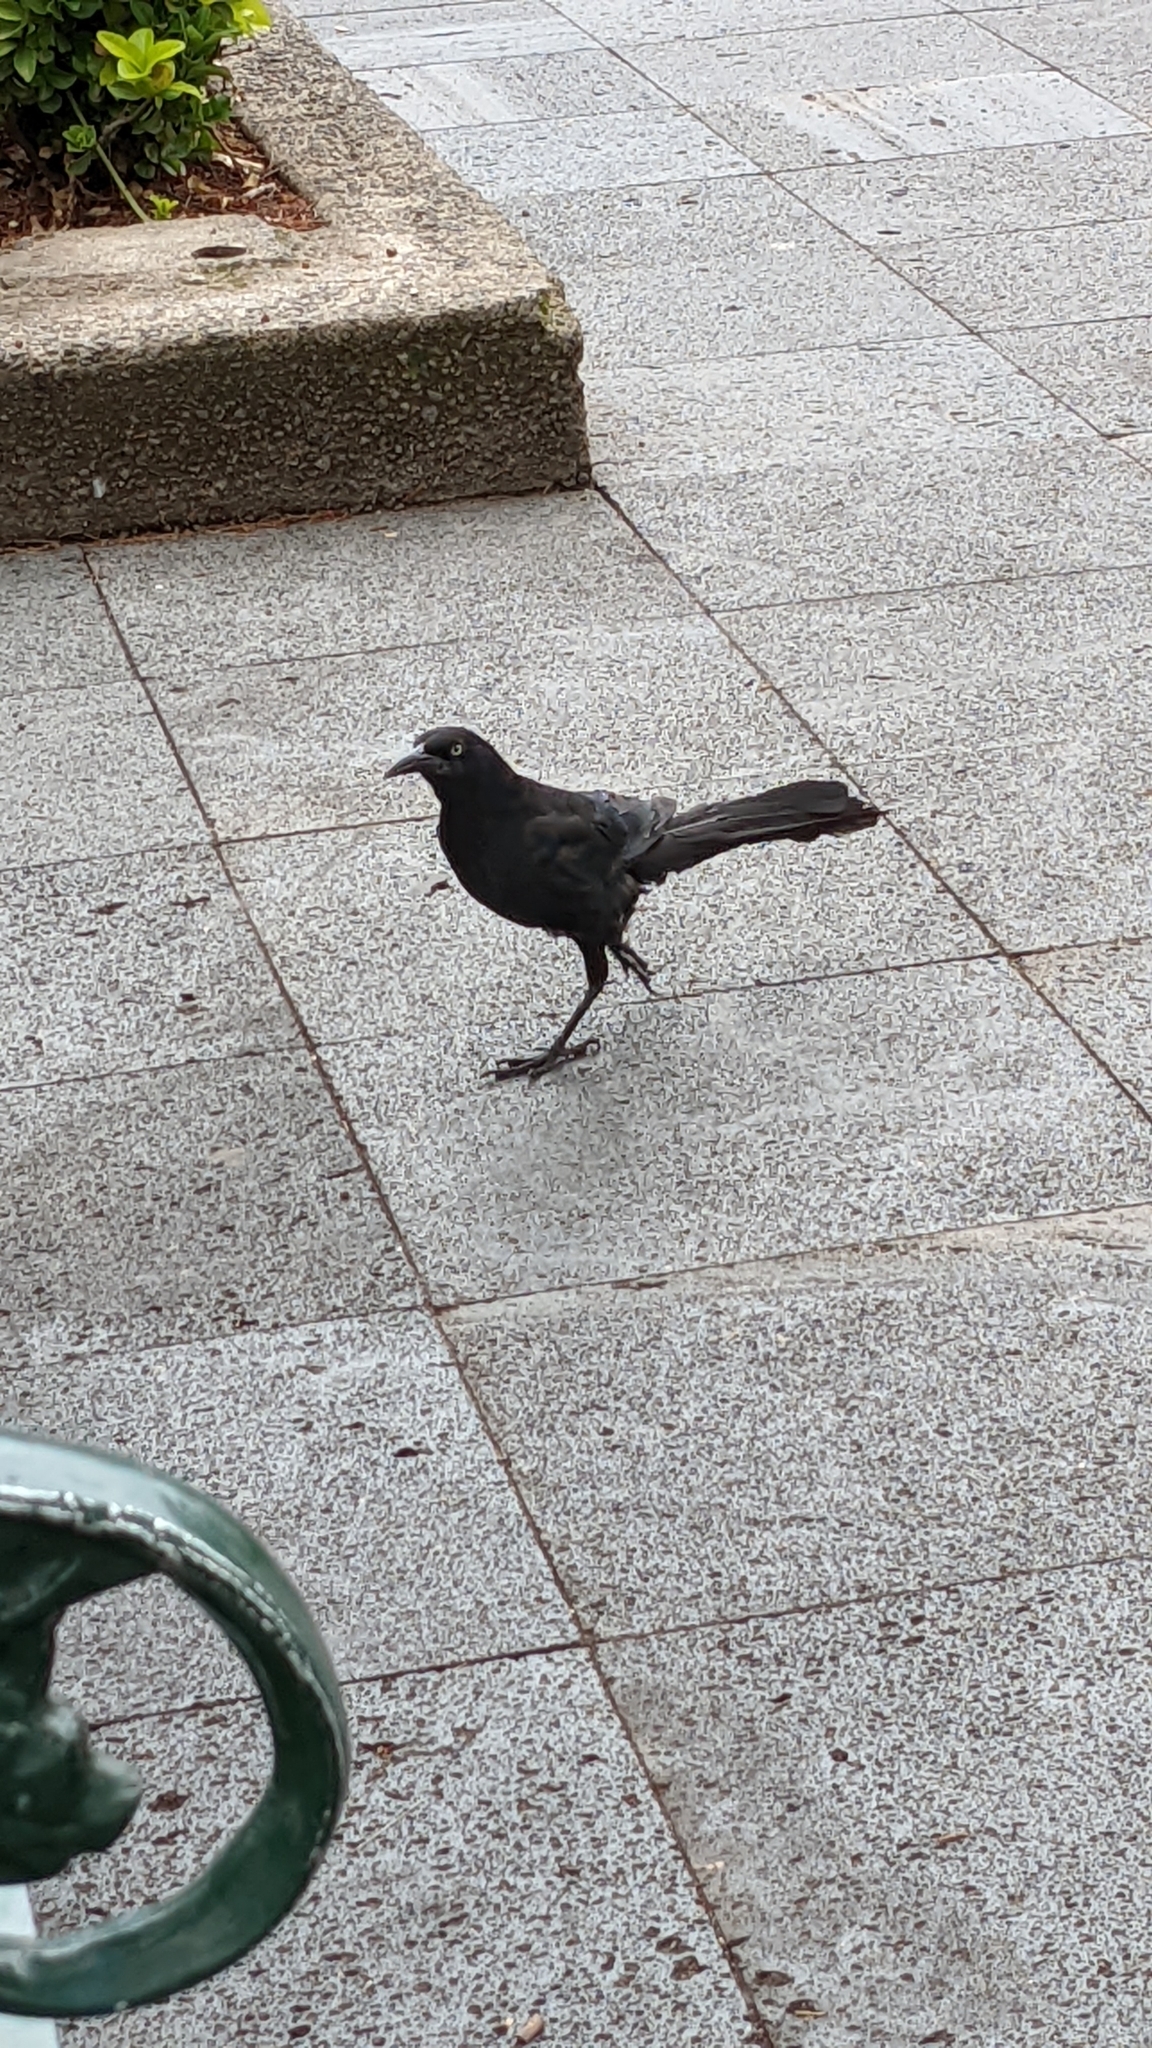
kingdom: Animalia
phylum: Chordata
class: Aves
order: Passeriformes
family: Icteridae
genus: Quiscalus
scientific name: Quiscalus mexicanus
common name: Great-tailed grackle
